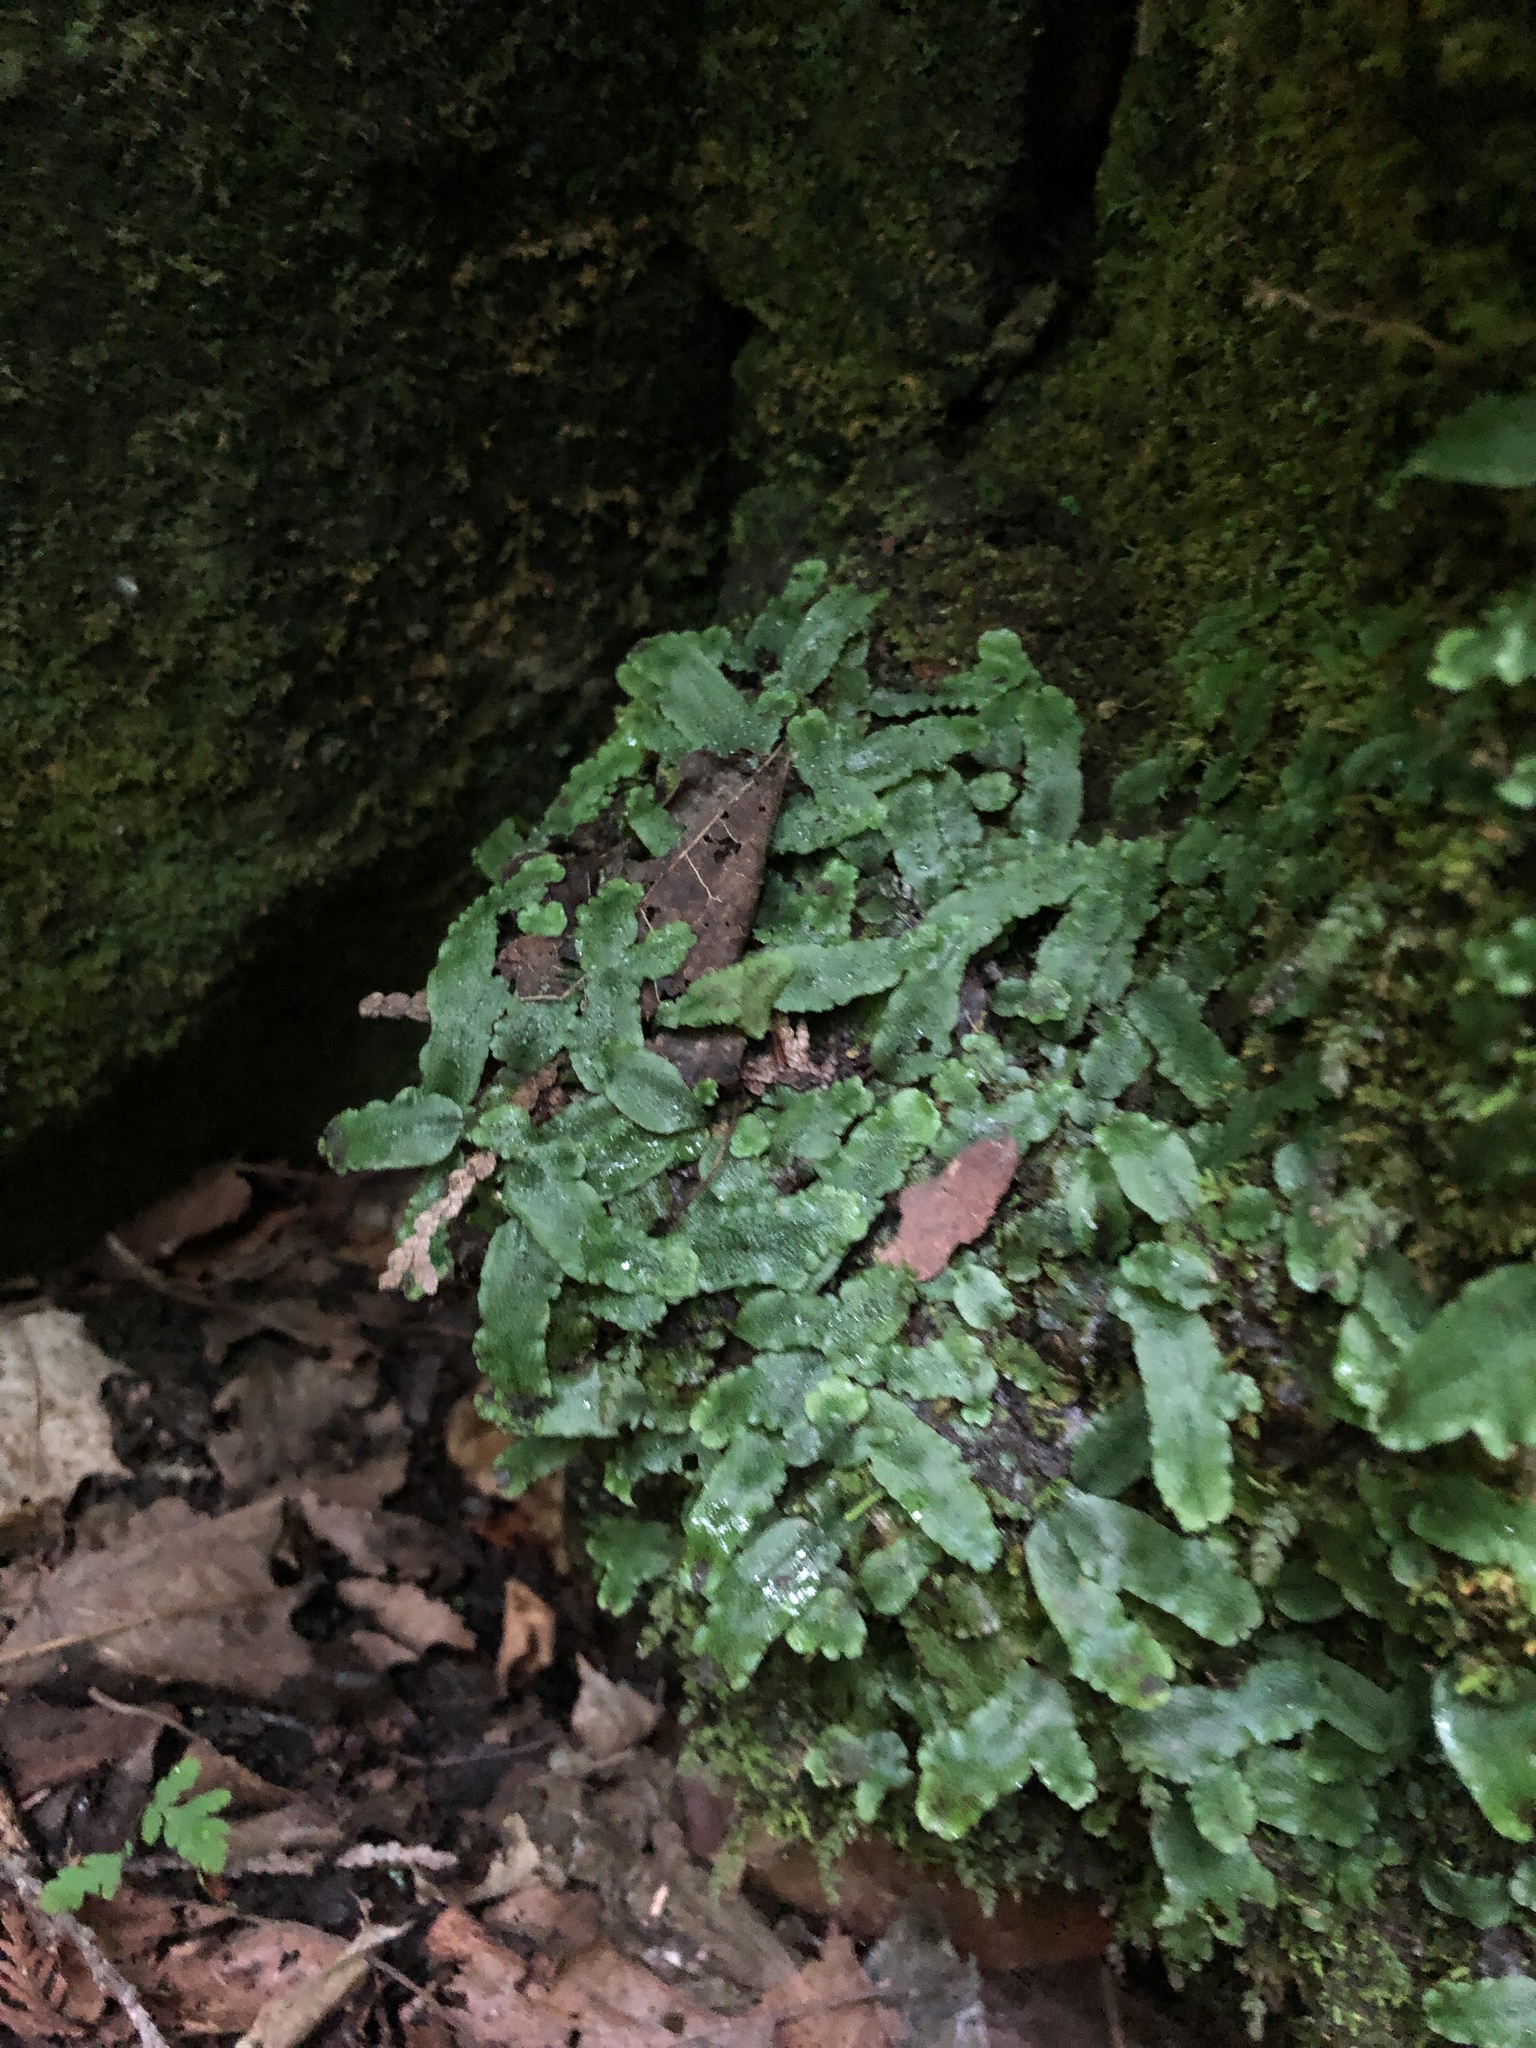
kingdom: Plantae
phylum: Marchantiophyta
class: Marchantiopsida
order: Marchantiales
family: Conocephalaceae
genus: Conocephalum
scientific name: Conocephalum salebrosum
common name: Cat-tongue liverwort
